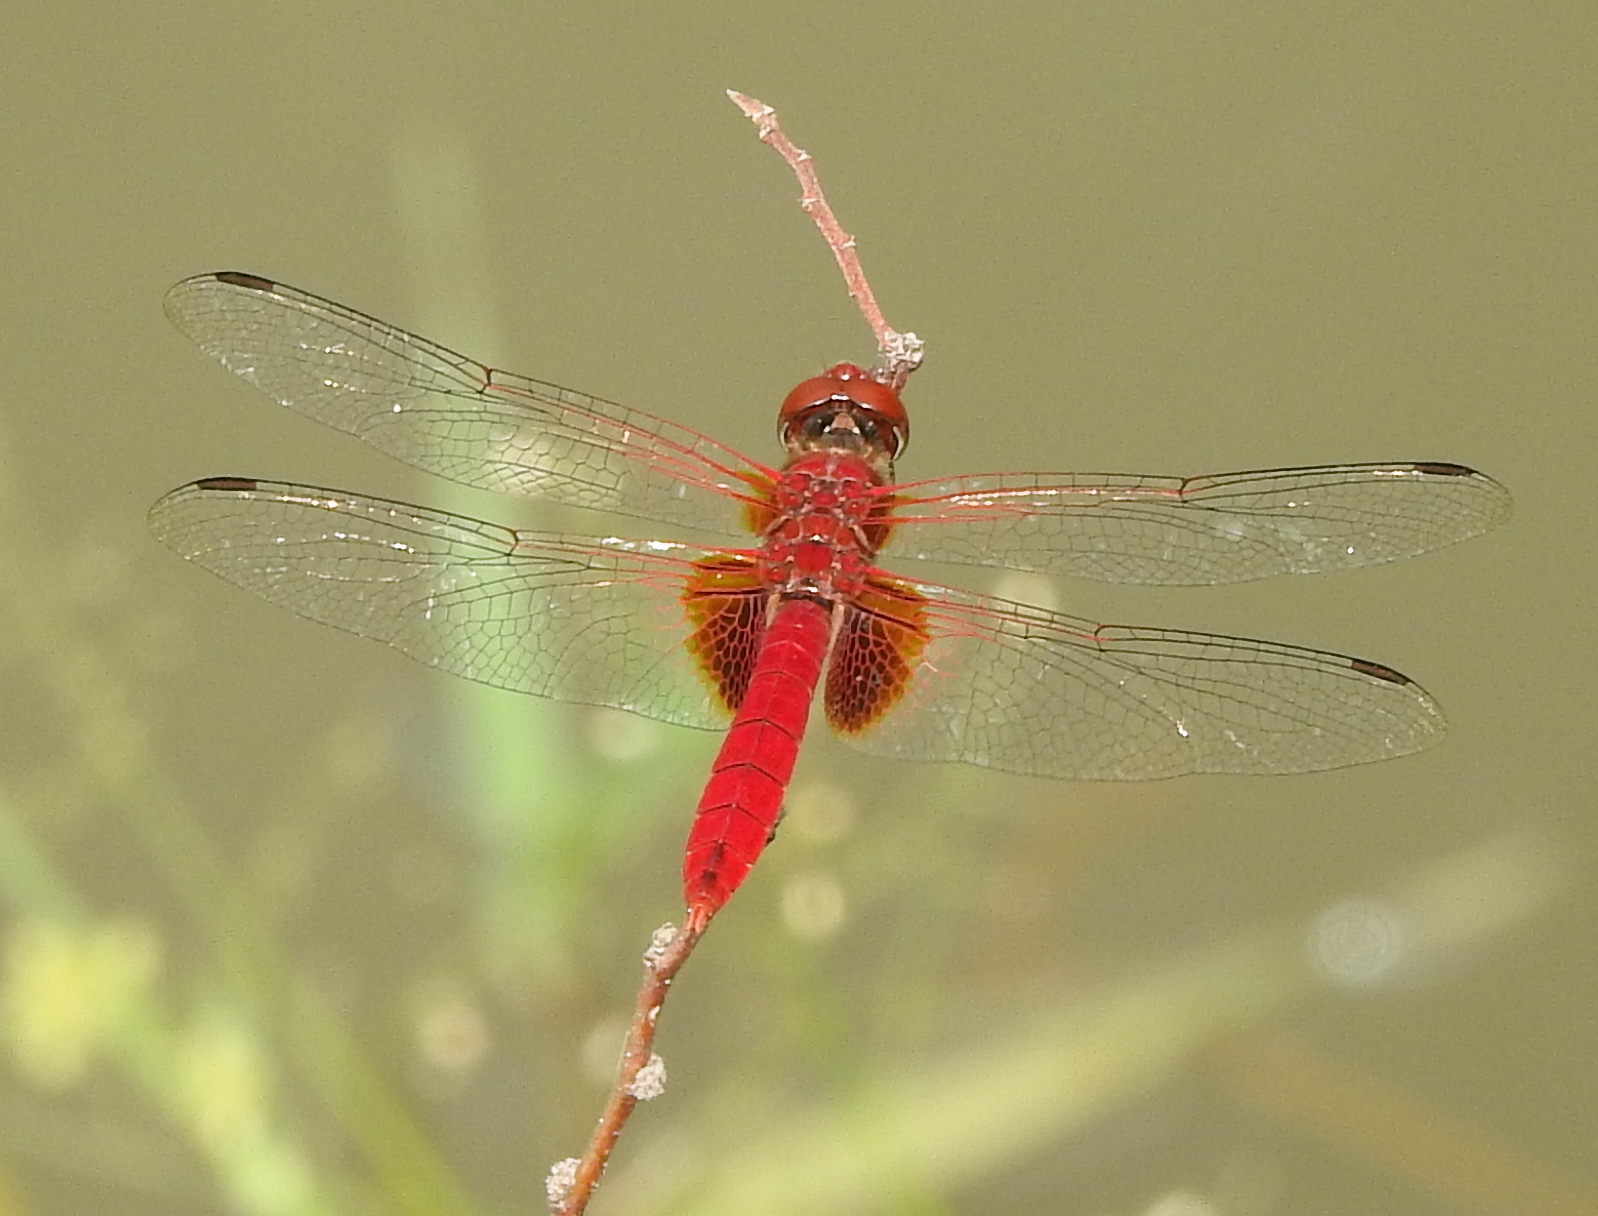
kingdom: Animalia
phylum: Arthropoda
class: Insecta
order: Odonata
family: Libellulidae
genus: Urothemis
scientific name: Urothemis signata
